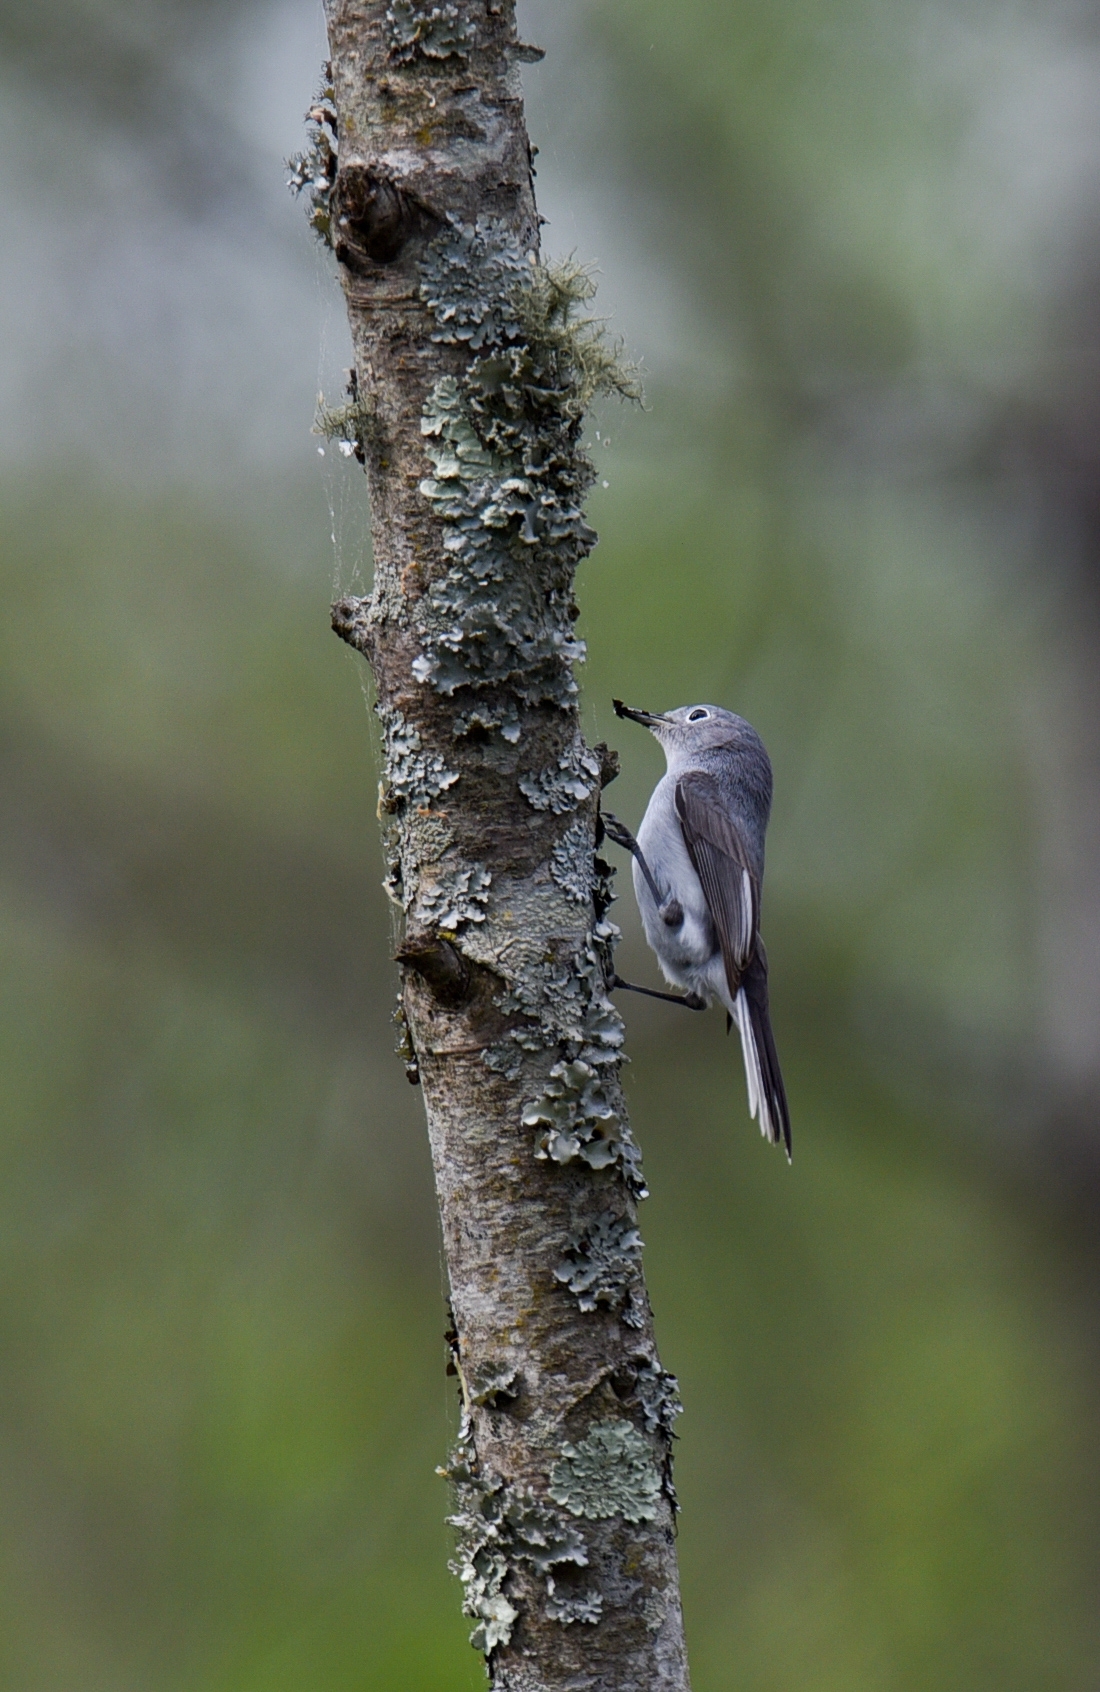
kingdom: Animalia
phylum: Chordata
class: Aves
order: Passeriformes
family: Polioptilidae
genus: Polioptila
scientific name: Polioptila caerulea
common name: Blue-gray gnatcatcher
